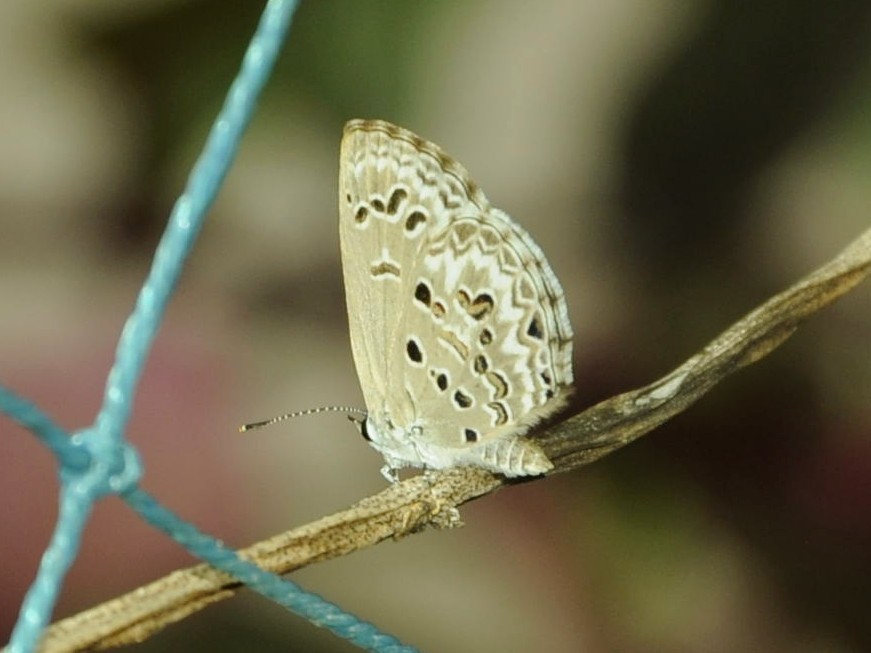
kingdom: Animalia
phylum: Arthropoda
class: Insecta
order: Lepidoptera
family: Lycaenidae
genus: Chilades
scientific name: Chilades laius
